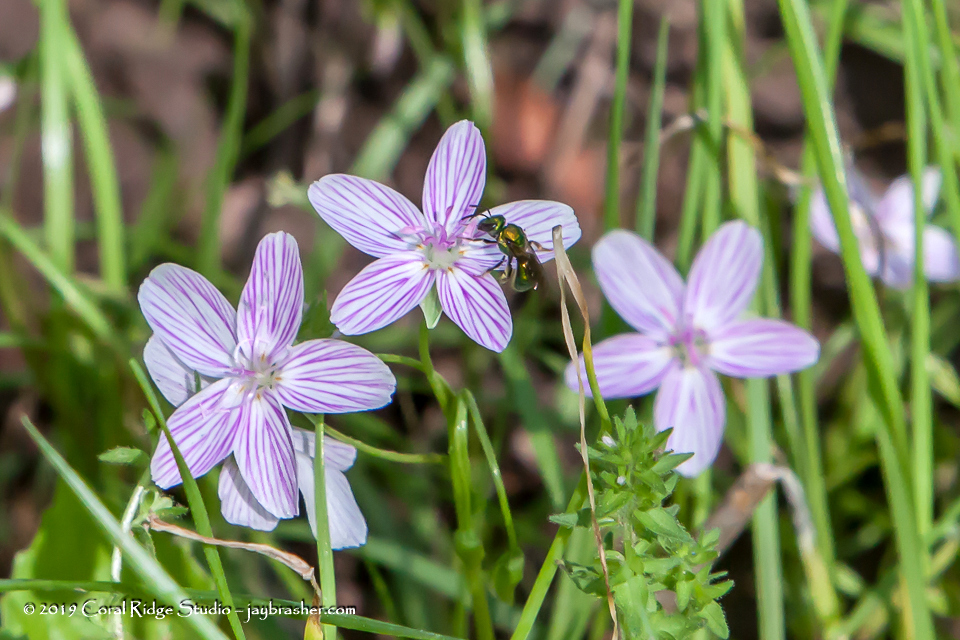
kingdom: Plantae
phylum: Tracheophyta
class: Magnoliopsida
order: Caryophyllales
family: Montiaceae
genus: Claytonia
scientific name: Claytonia virginica
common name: Virginia springbeauty
